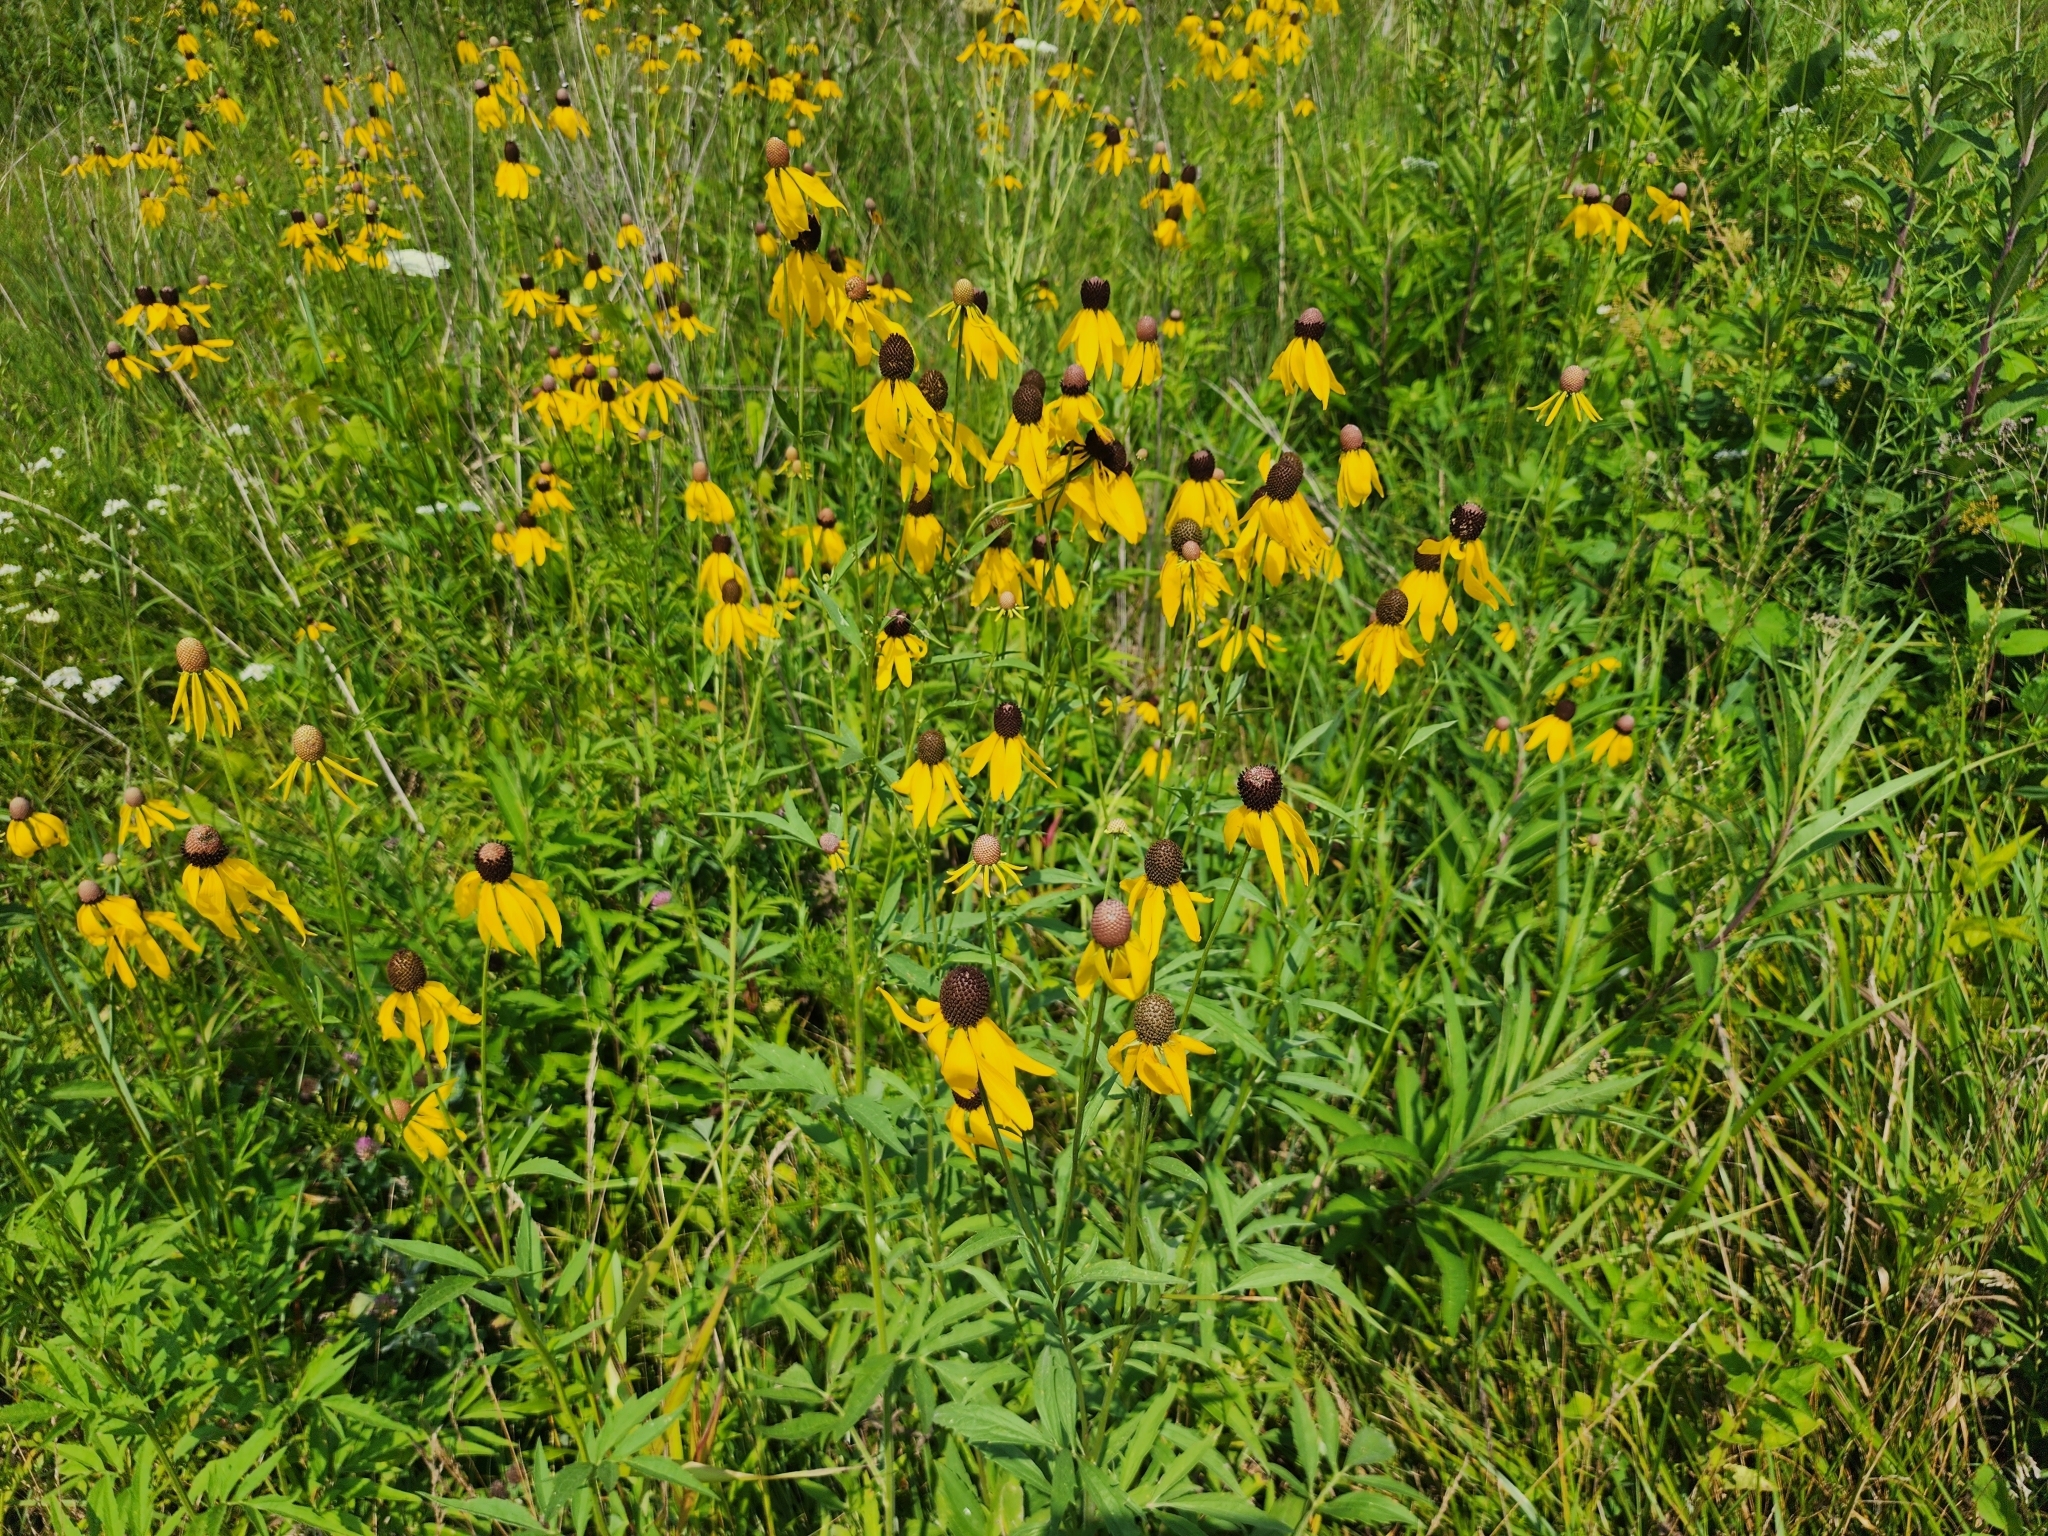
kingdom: Plantae
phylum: Tracheophyta
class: Magnoliopsida
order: Asterales
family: Asteraceae
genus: Ratibida
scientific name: Ratibida pinnata
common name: Drooping prairie-coneflower
